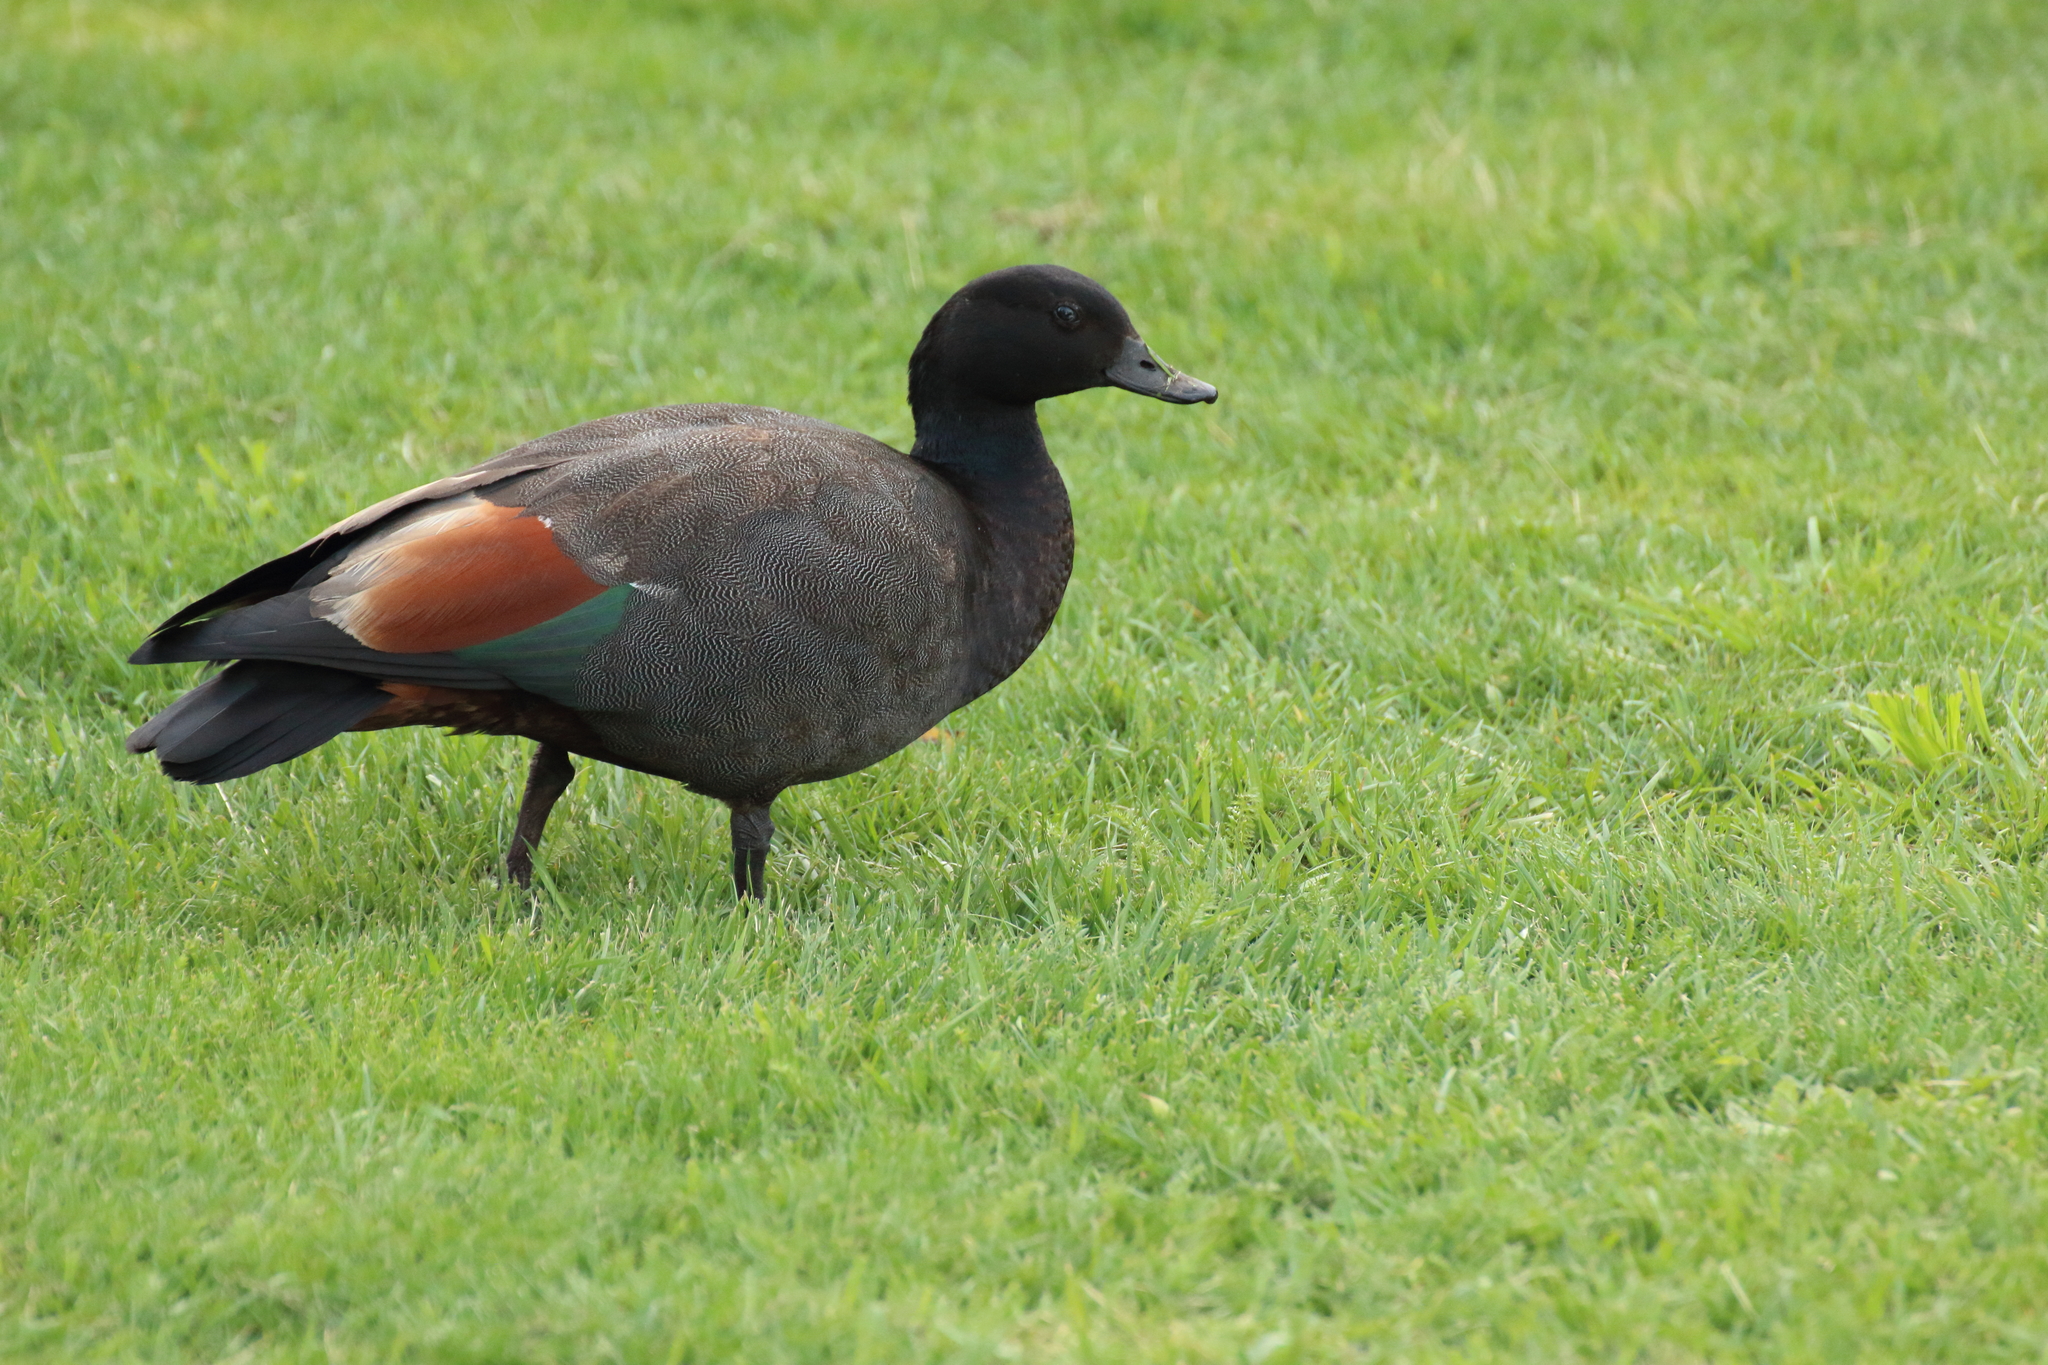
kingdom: Animalia
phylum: Chordata
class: Aves
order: Anseriformes
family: Anatidae
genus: Tadorna
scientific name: Tadorna variegata
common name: Paradise shelduck
